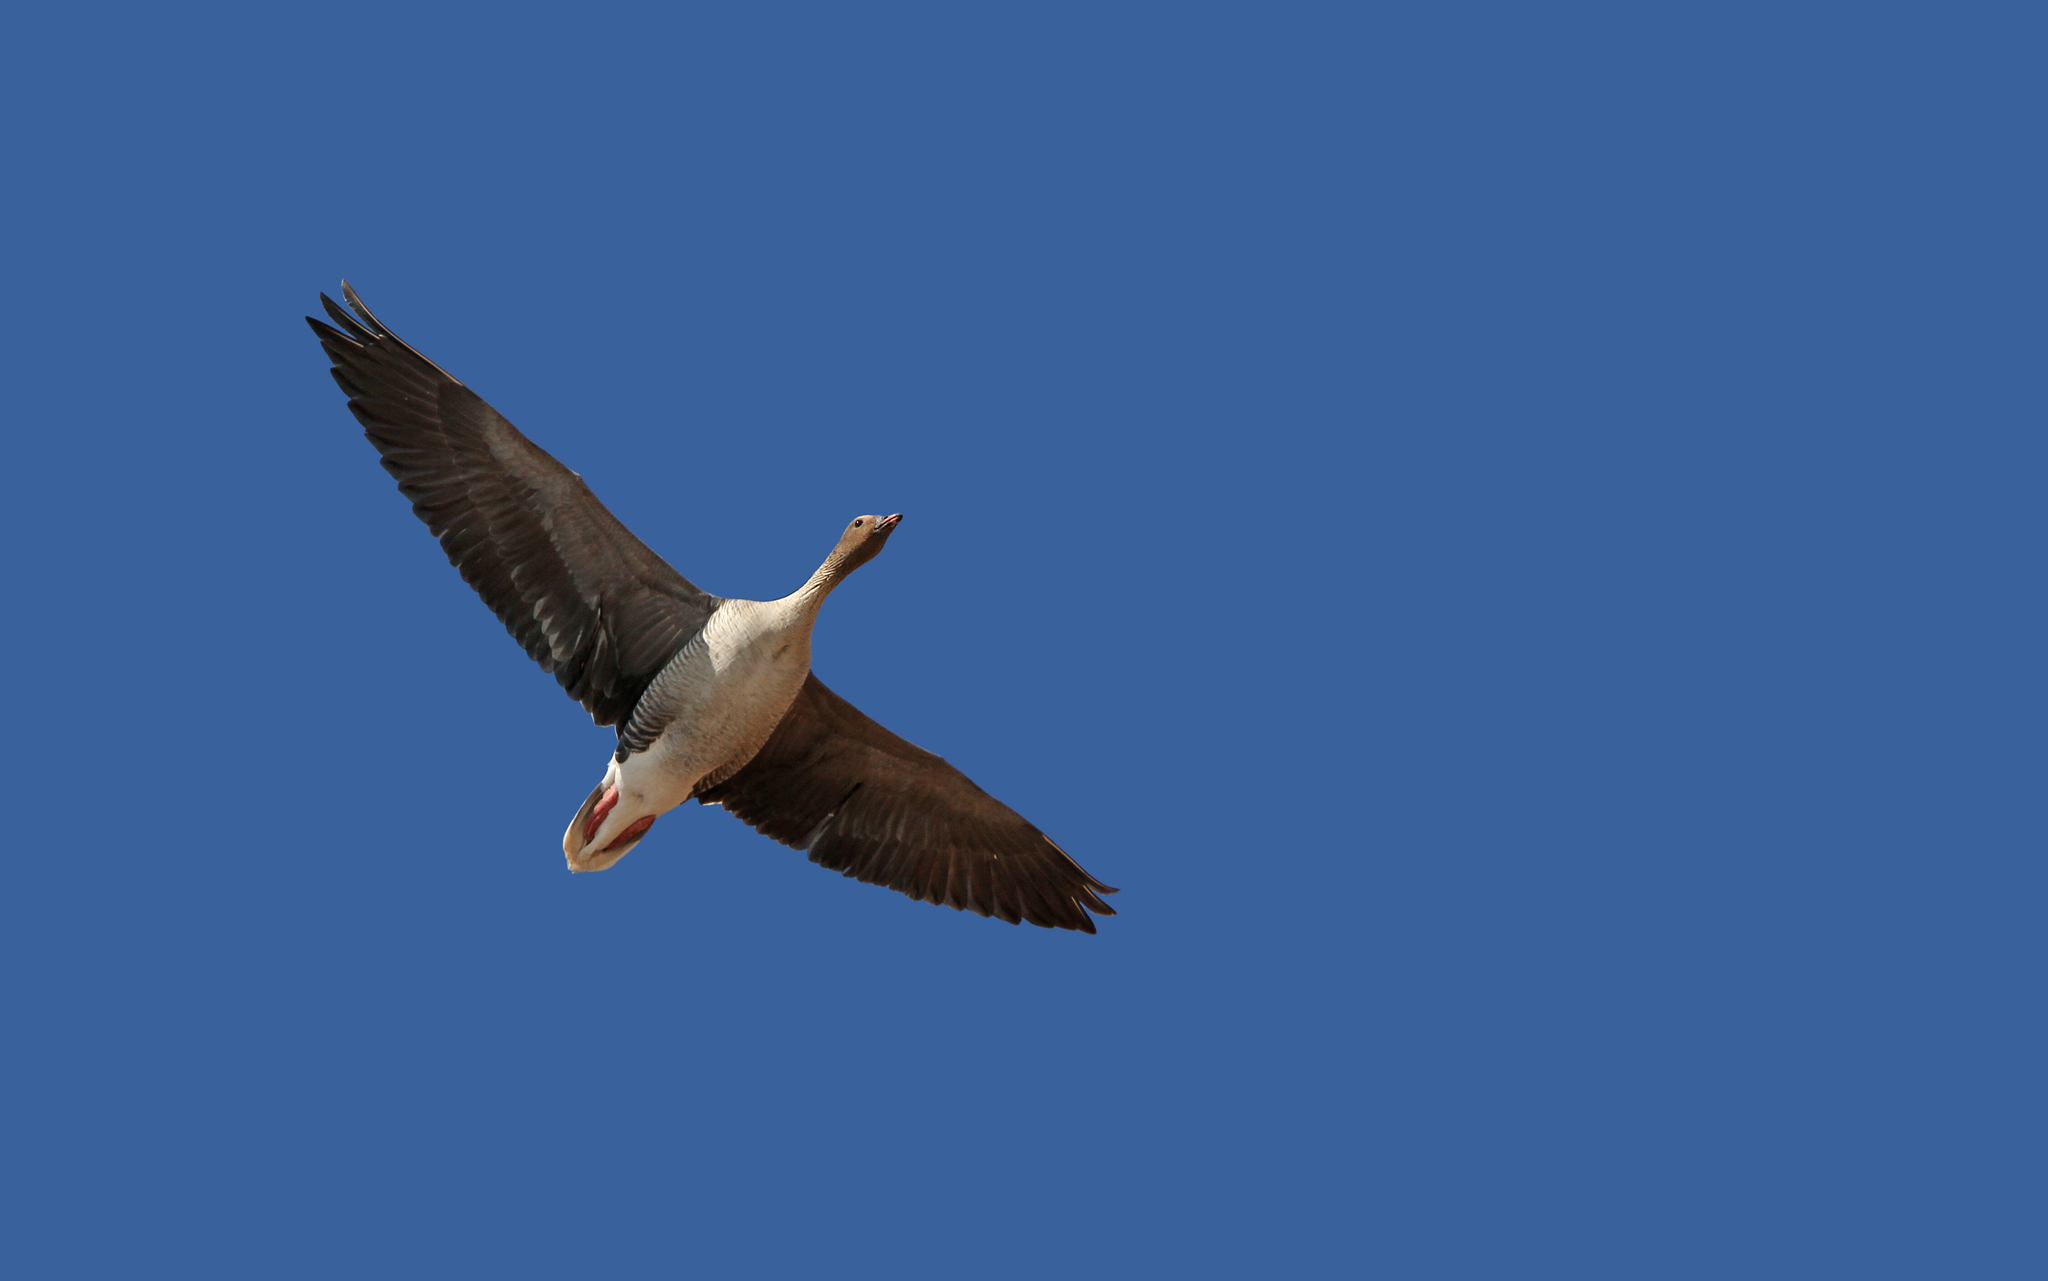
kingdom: Animalia
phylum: Chordata
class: Aves
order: Anseriformes
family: Anatidae
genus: Anser
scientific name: Anser brachyrhynchus
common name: Pink-footed goose
